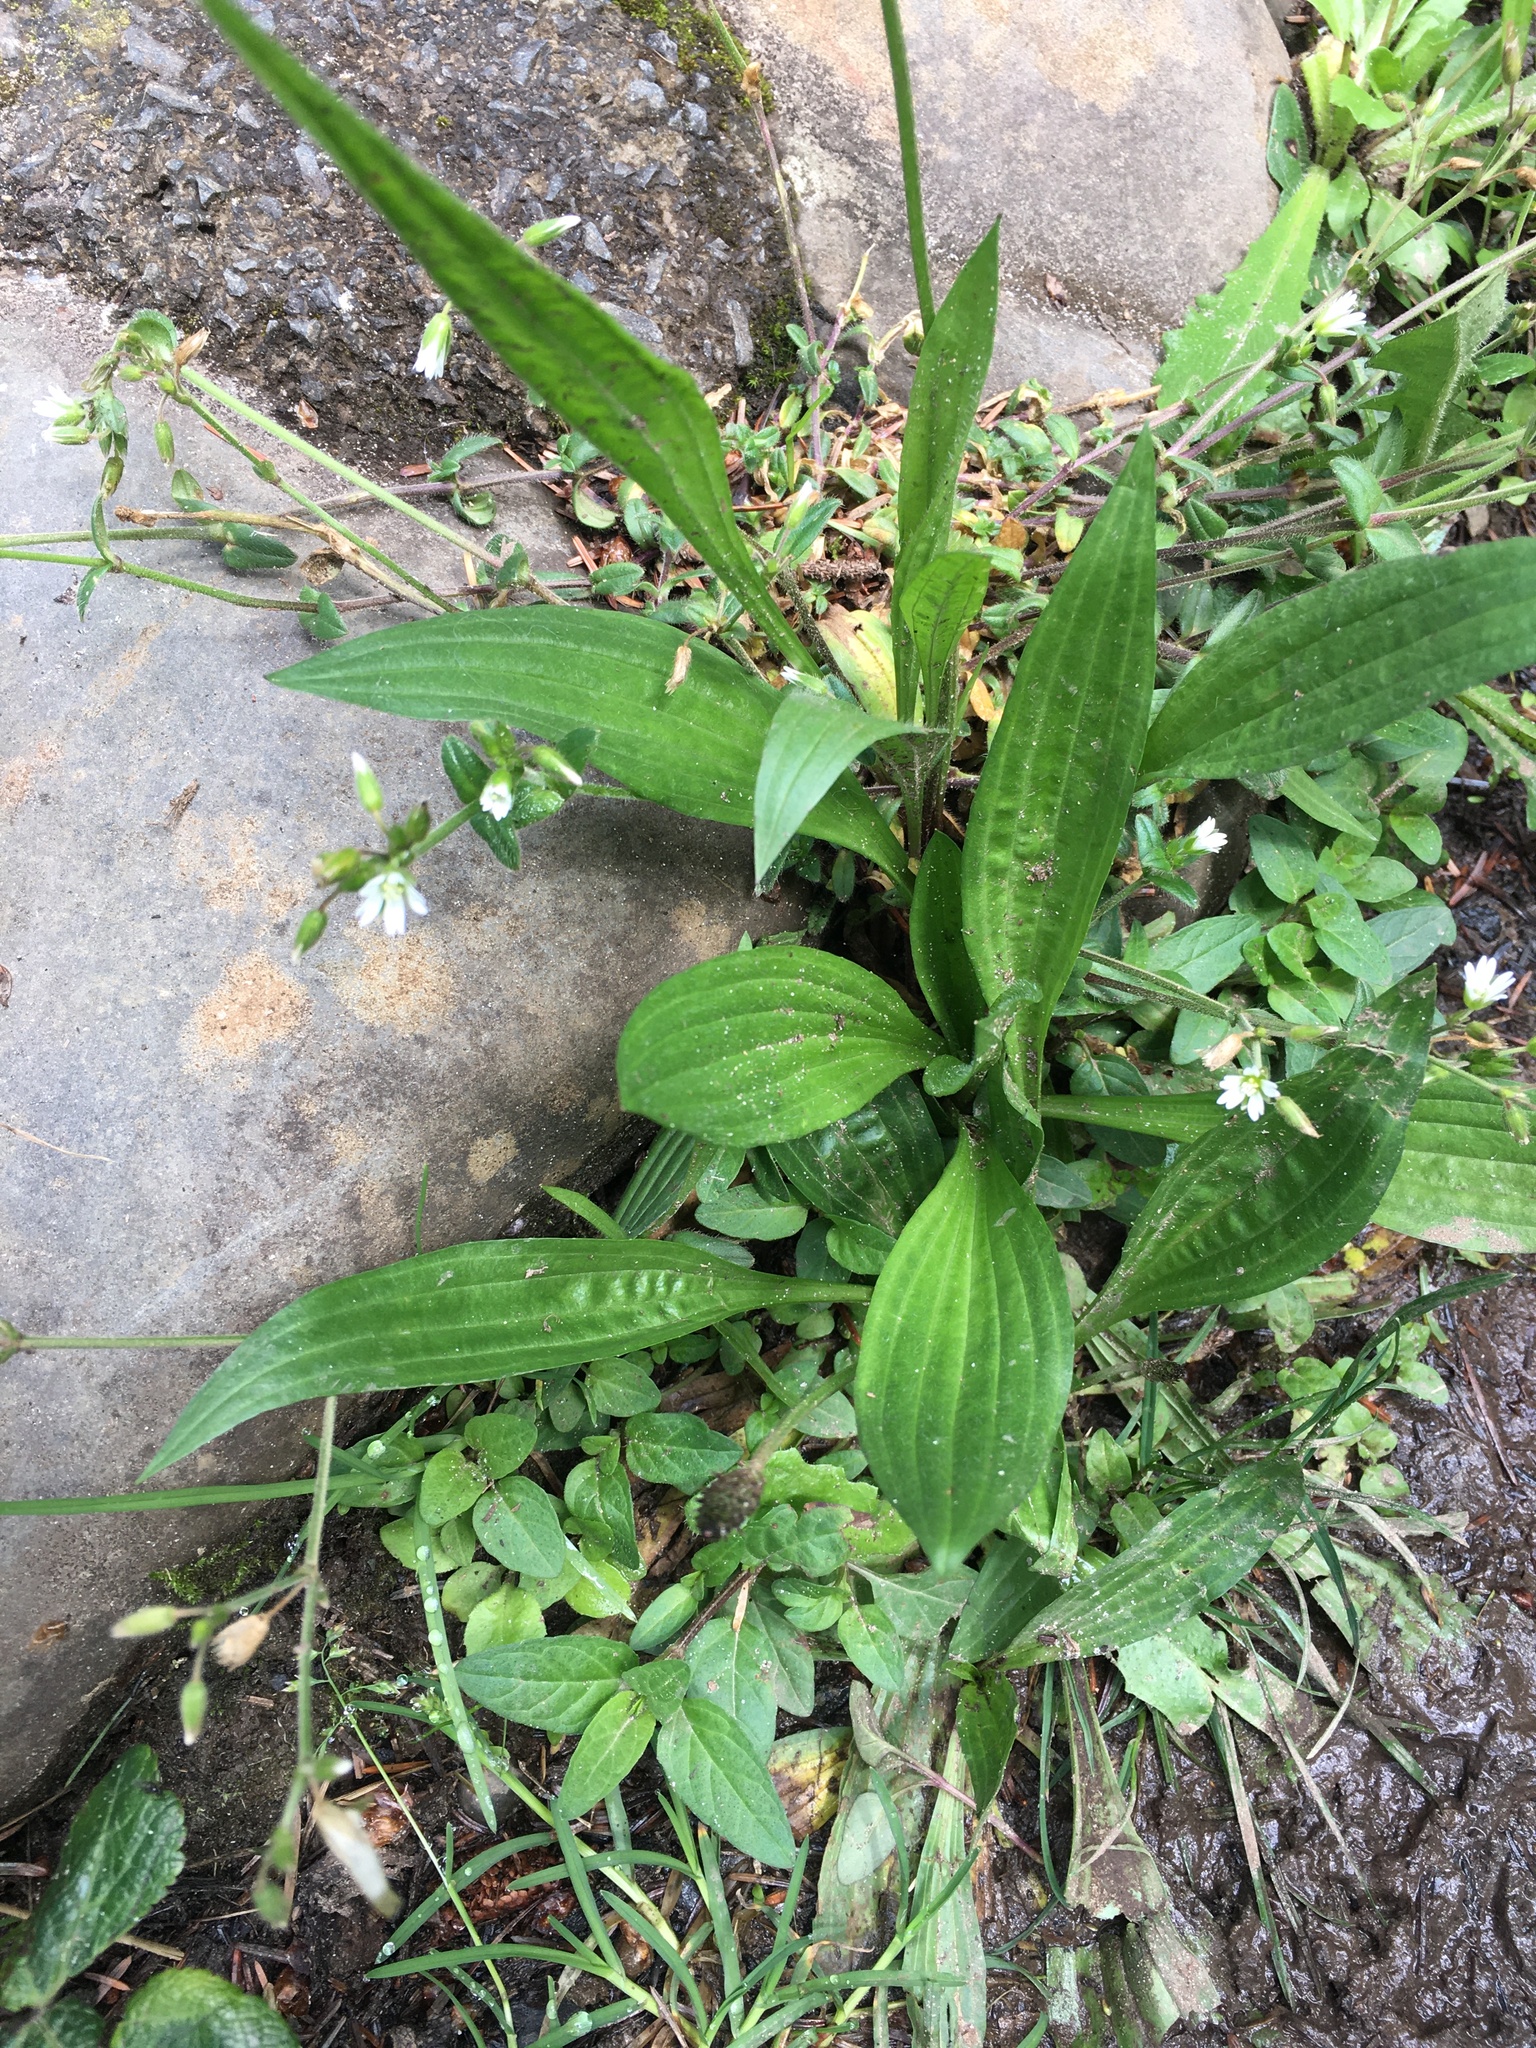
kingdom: Plantae
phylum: Tracheophyta
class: Magnoliopsida
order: Lamiales
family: Plantaginaceae
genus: Plantago
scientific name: Plantago lanceolata
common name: Ribwort plantain
